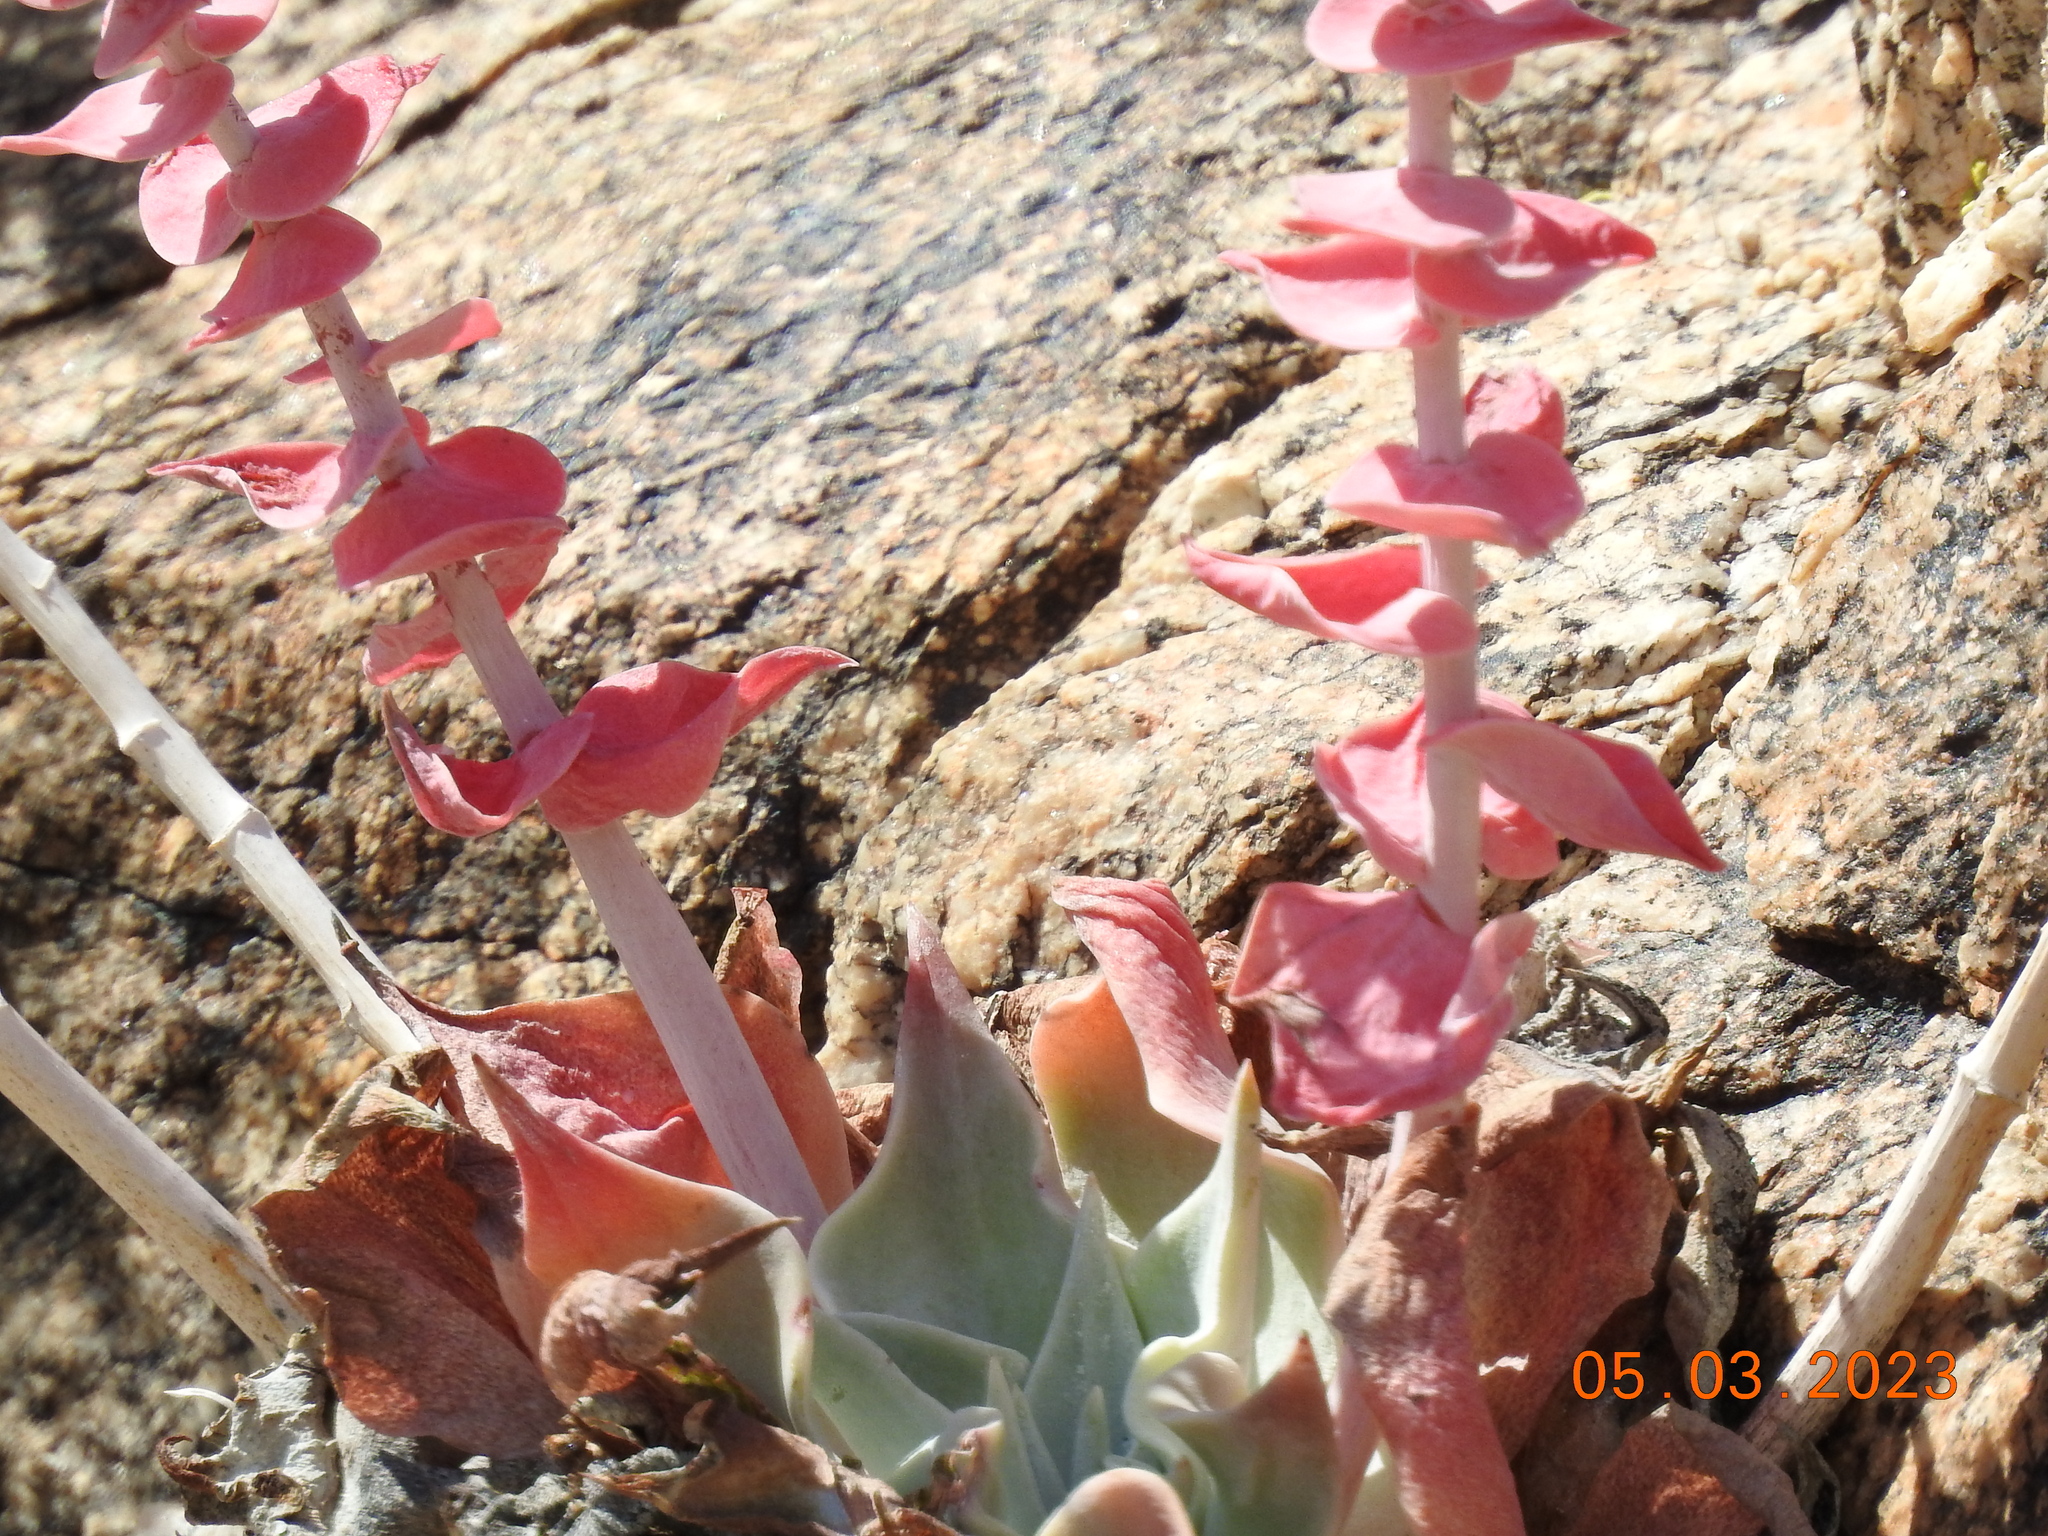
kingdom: Plantae
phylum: Tracheophyta
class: Magnoliopsida
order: Saxifragales
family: Crassulaceae
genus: Dudleya
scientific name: Dudleya arizonica
